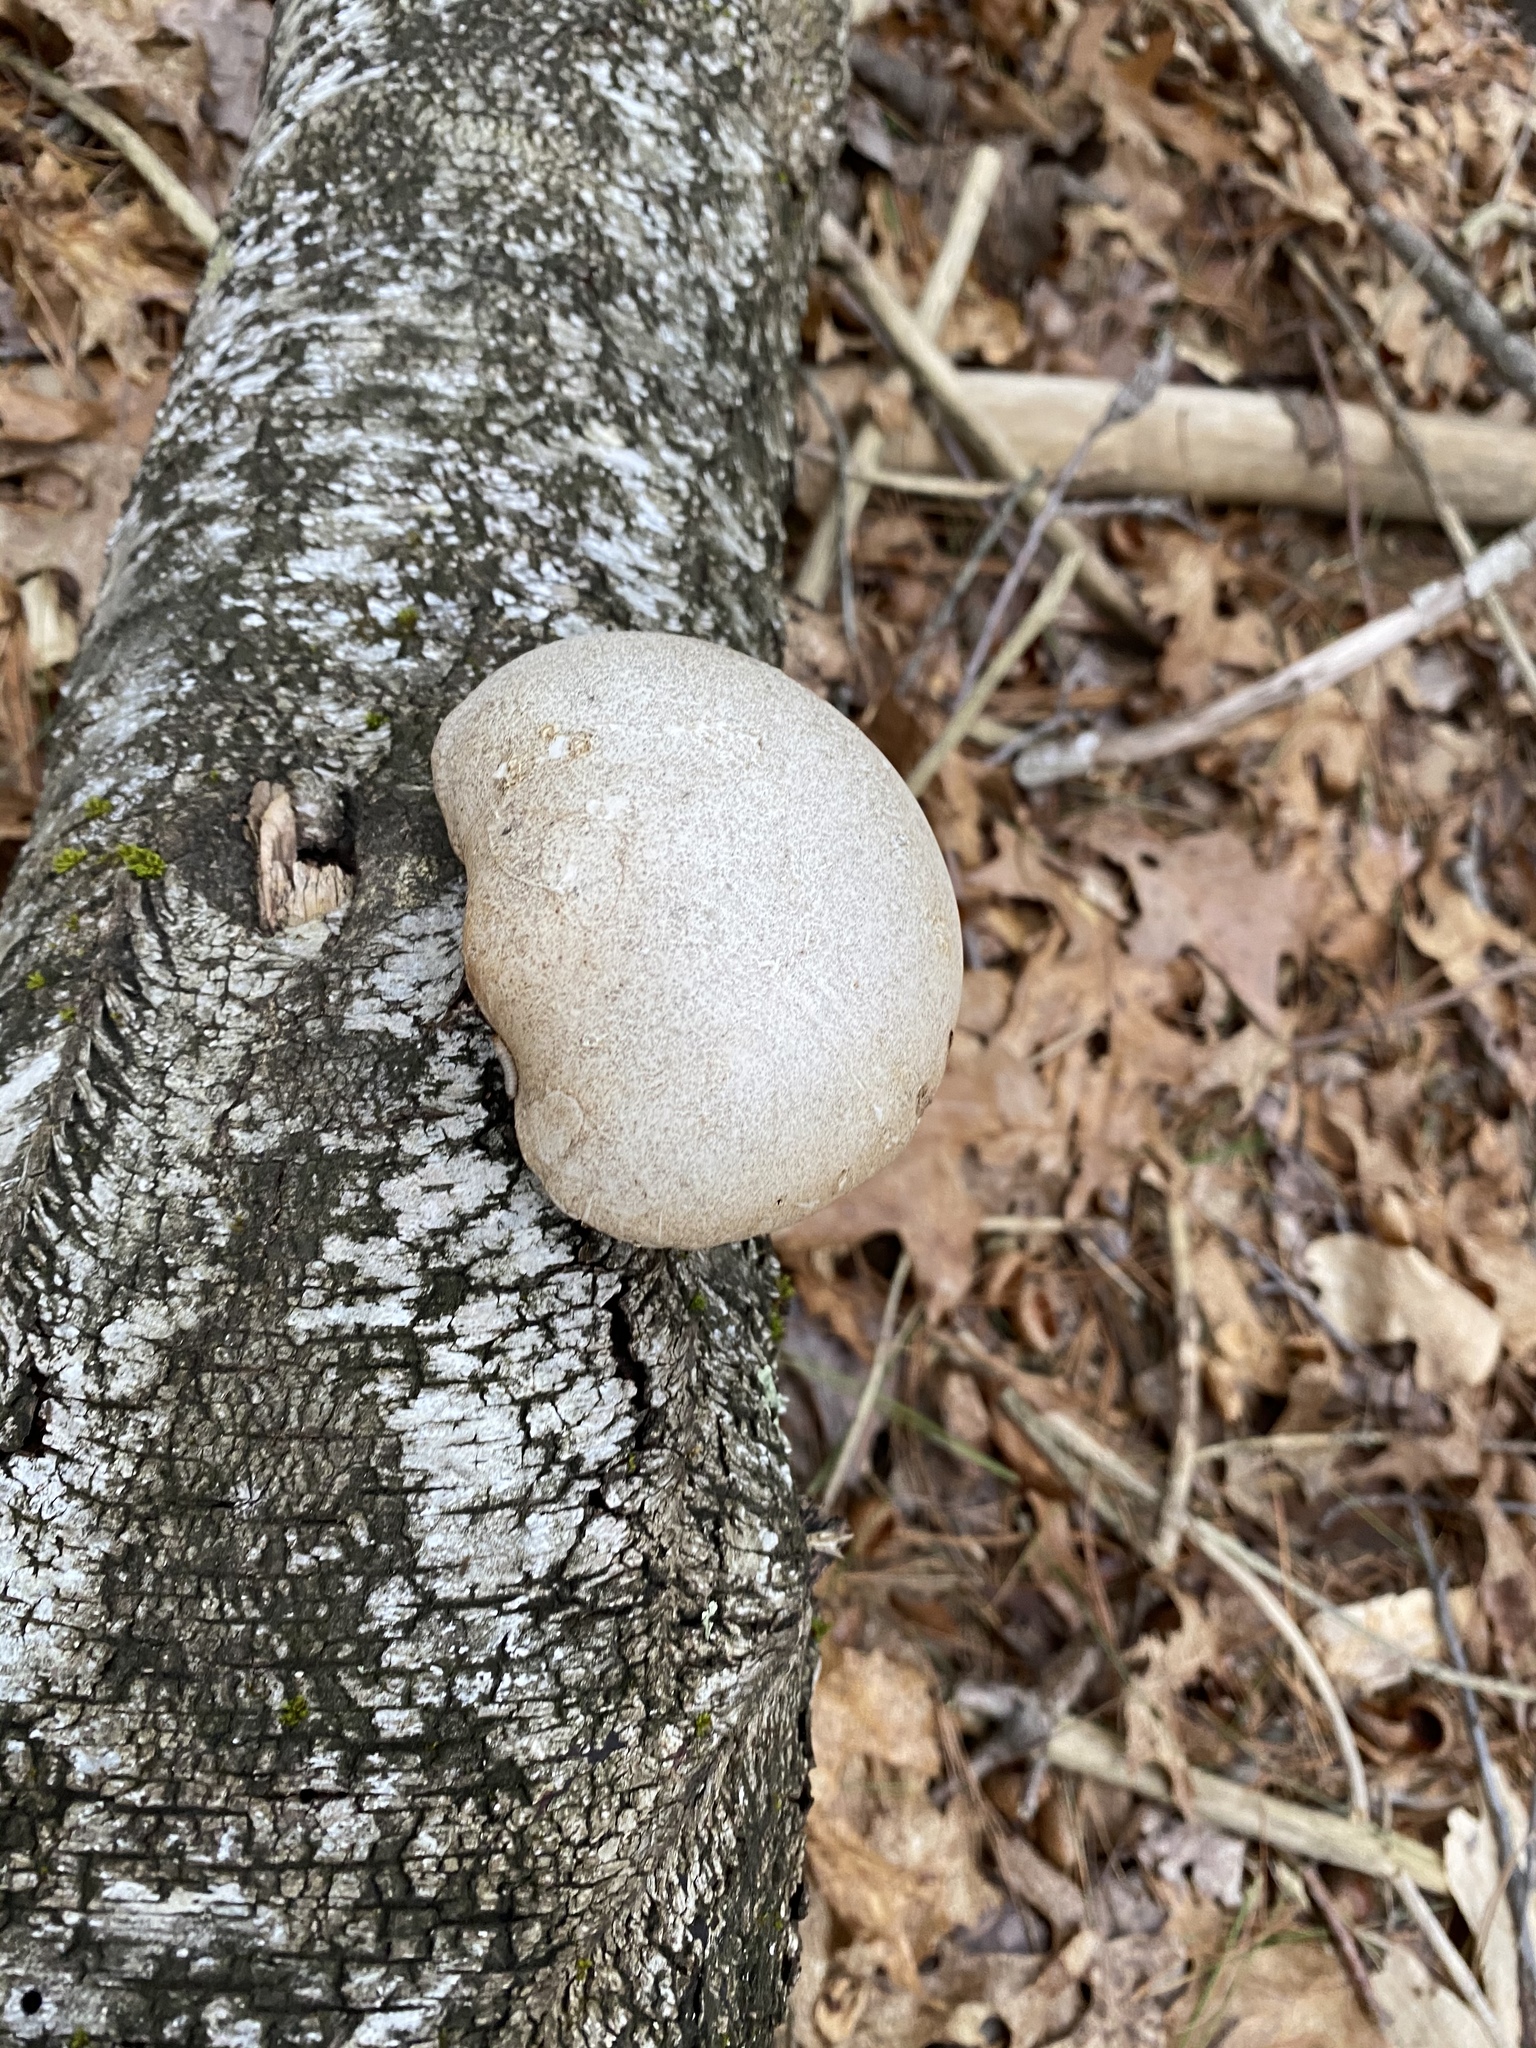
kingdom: Fungi
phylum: Basidiomycota
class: Agaricomycetes
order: Polyporales
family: Fomitopsidaceae
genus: Fomitopsis
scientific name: Fomitopsis betulina
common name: Birch polypore
